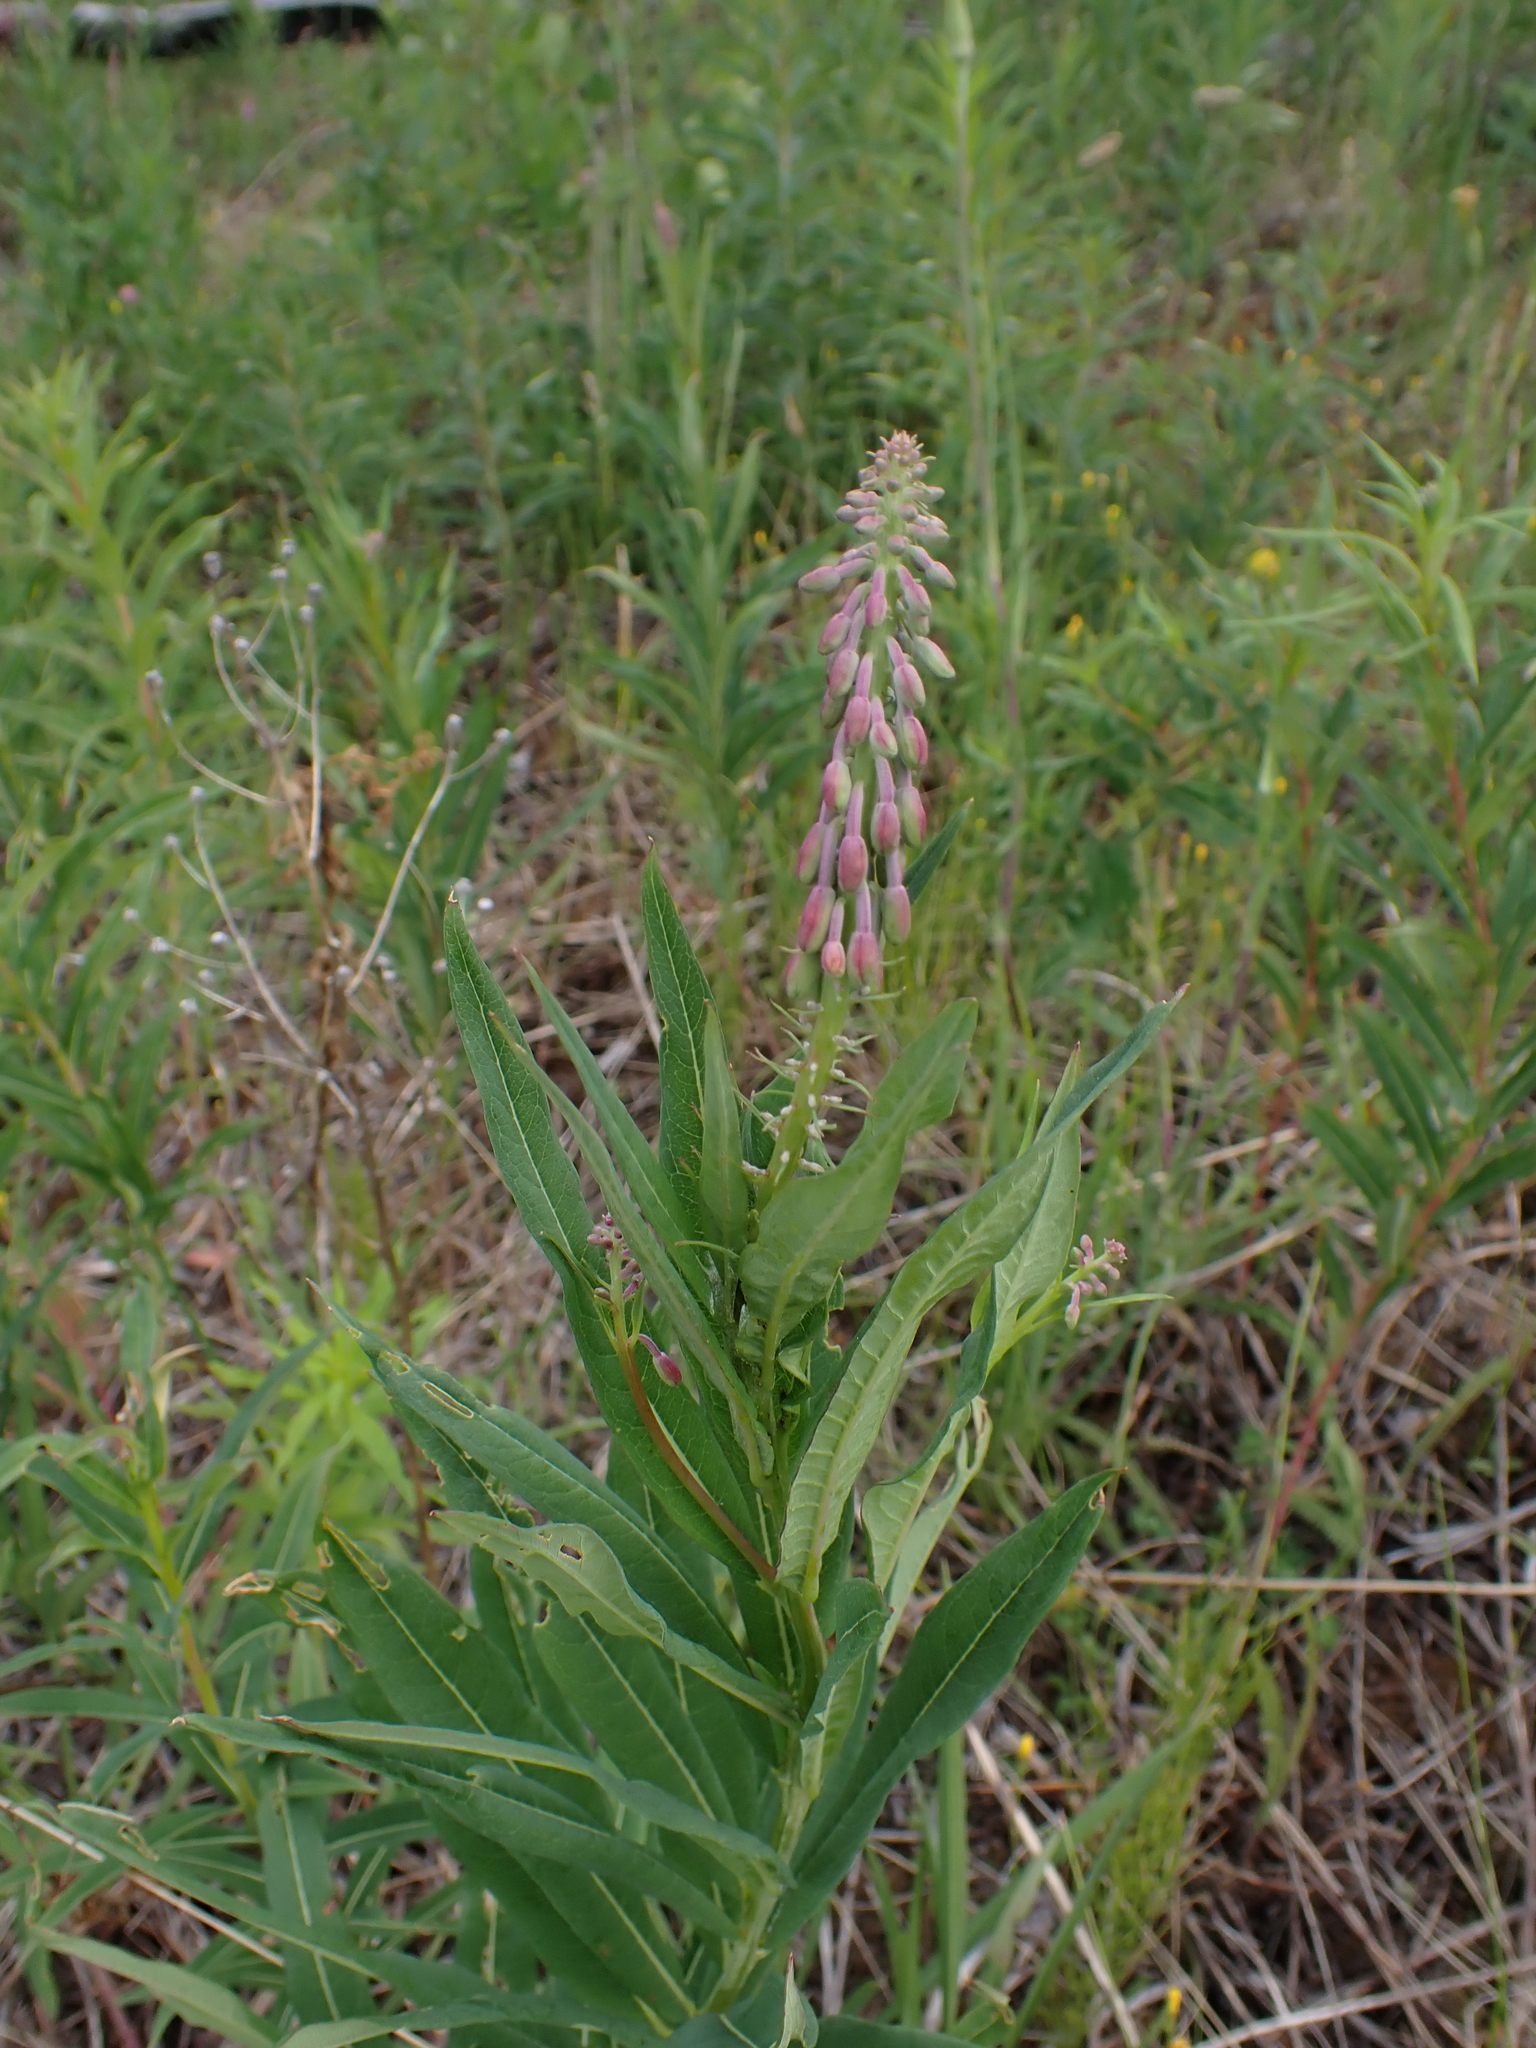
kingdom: Plantae
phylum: Tracheophyta
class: Magnoliopsida
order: Myrtales
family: Onagraceae
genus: Chamaenerion
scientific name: Chamaenerion angustifolium
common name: Fireweed
